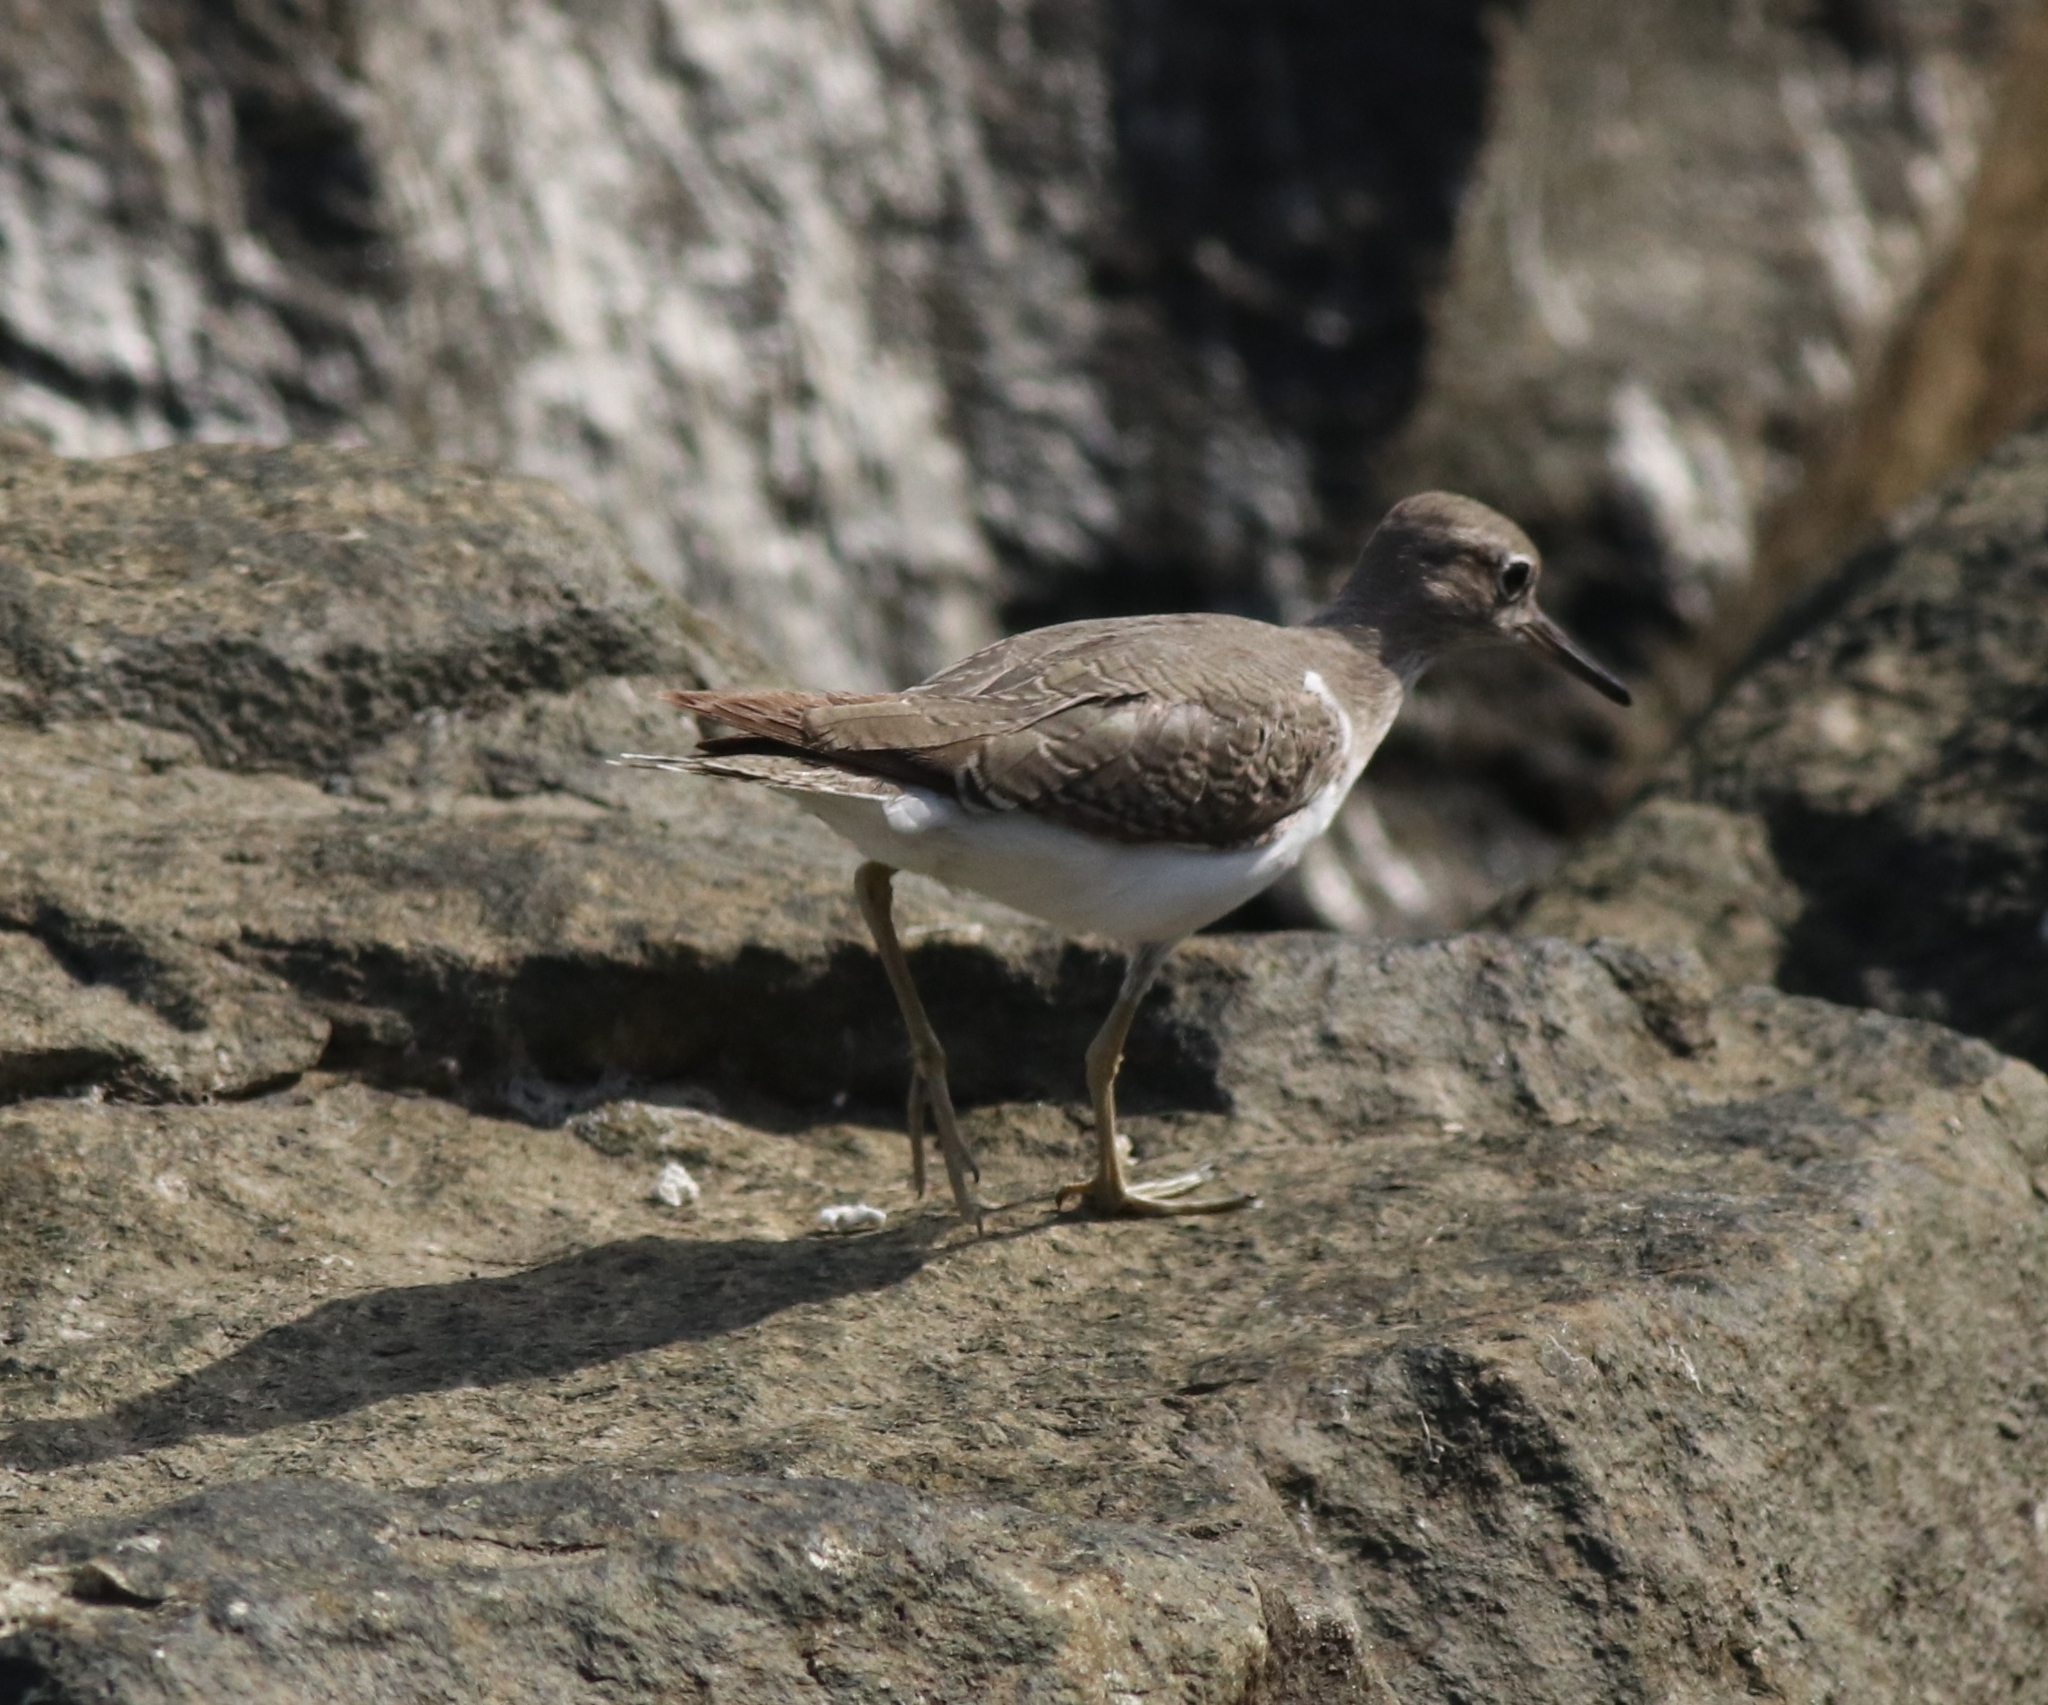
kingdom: Animalia
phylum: Chordata
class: Aves
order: Charadriiformes
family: Scolopacidae
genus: Actitis
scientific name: Actitis hypoleucos
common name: Common sandpiper
